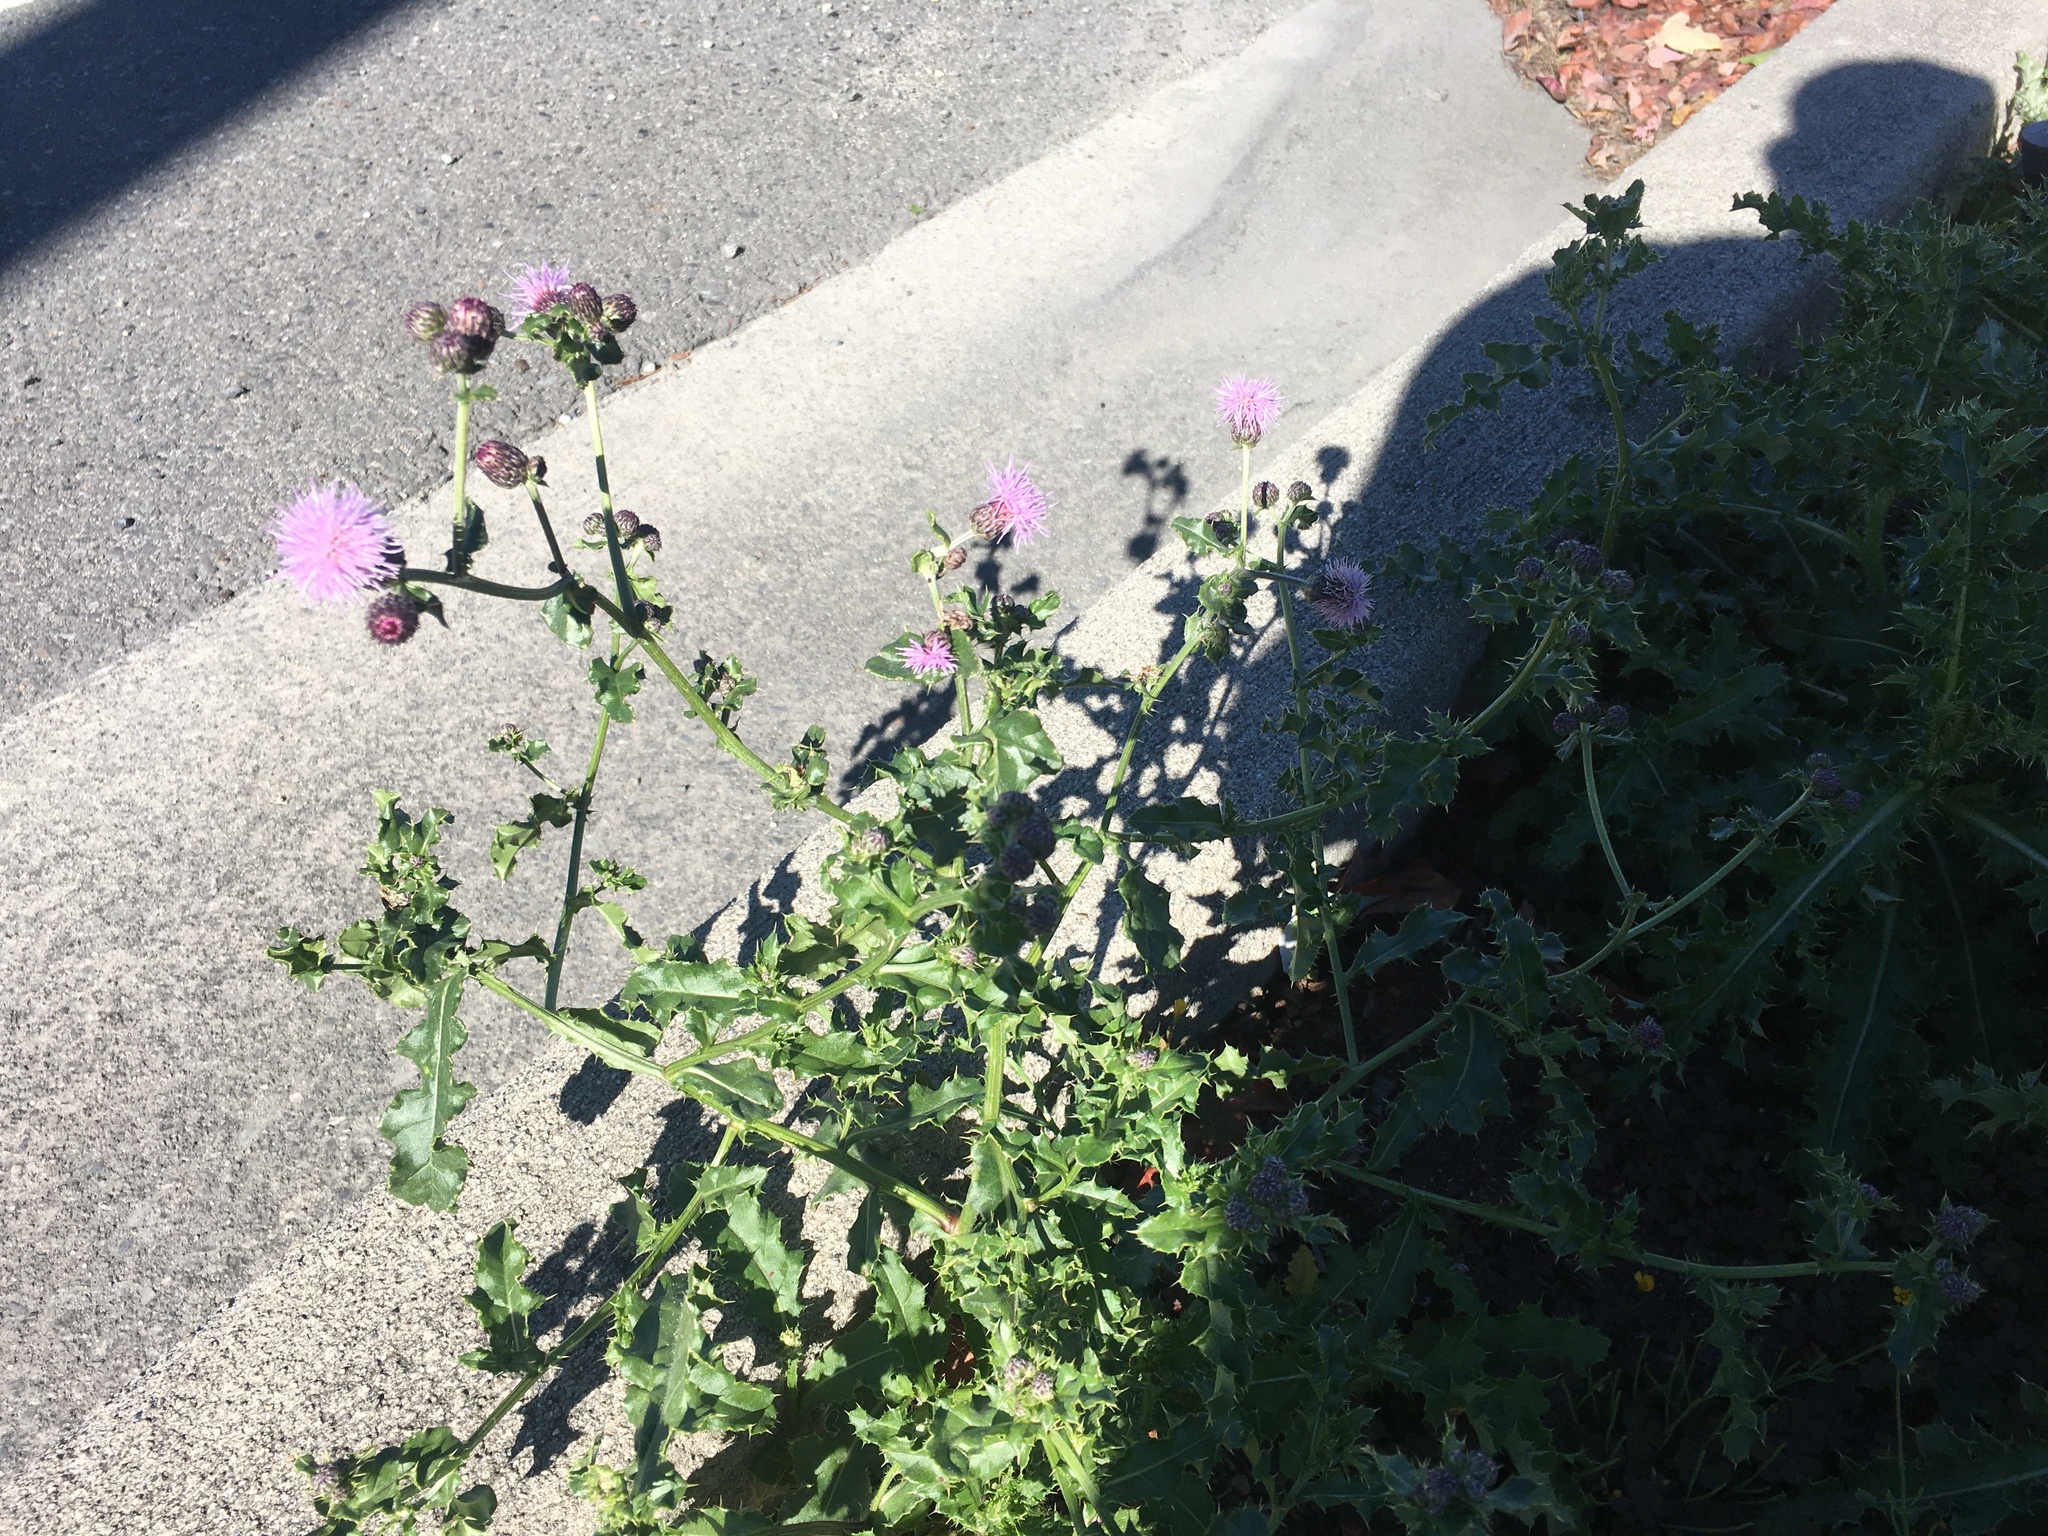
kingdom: Plantae
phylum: Tracheophyta
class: Magnoliopsida
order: Asterales
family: Asteraceae
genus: Cirsium
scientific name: Cirsium arvense
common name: Creeping thistle
